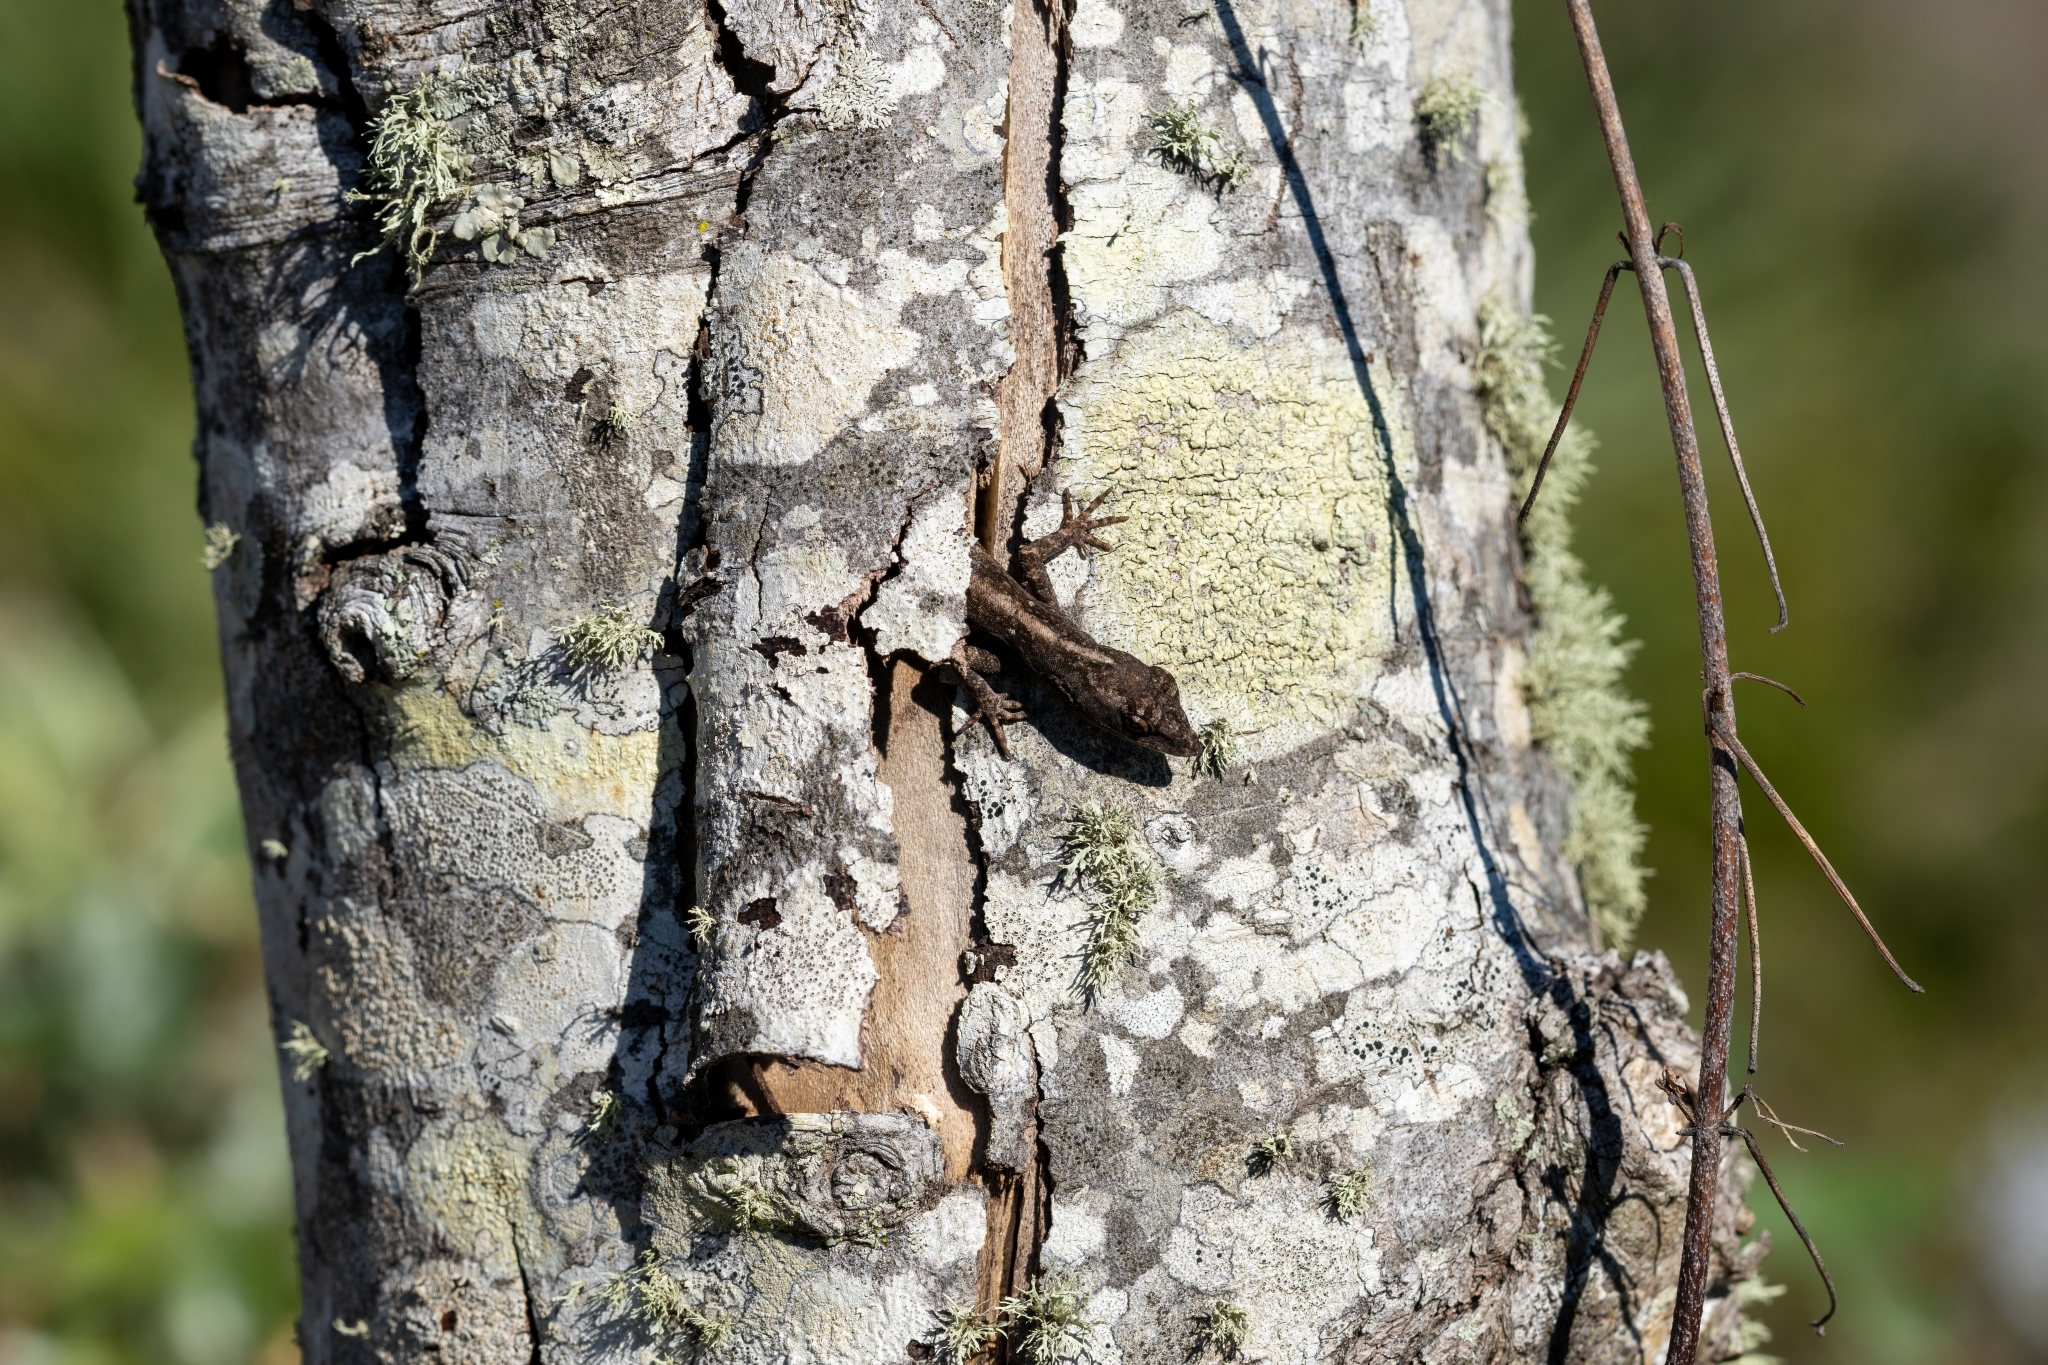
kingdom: Animalia
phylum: Chordata
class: Squamata
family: Dactyloidae
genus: Anolis
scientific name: Anolis sagrei
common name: Brown anole
